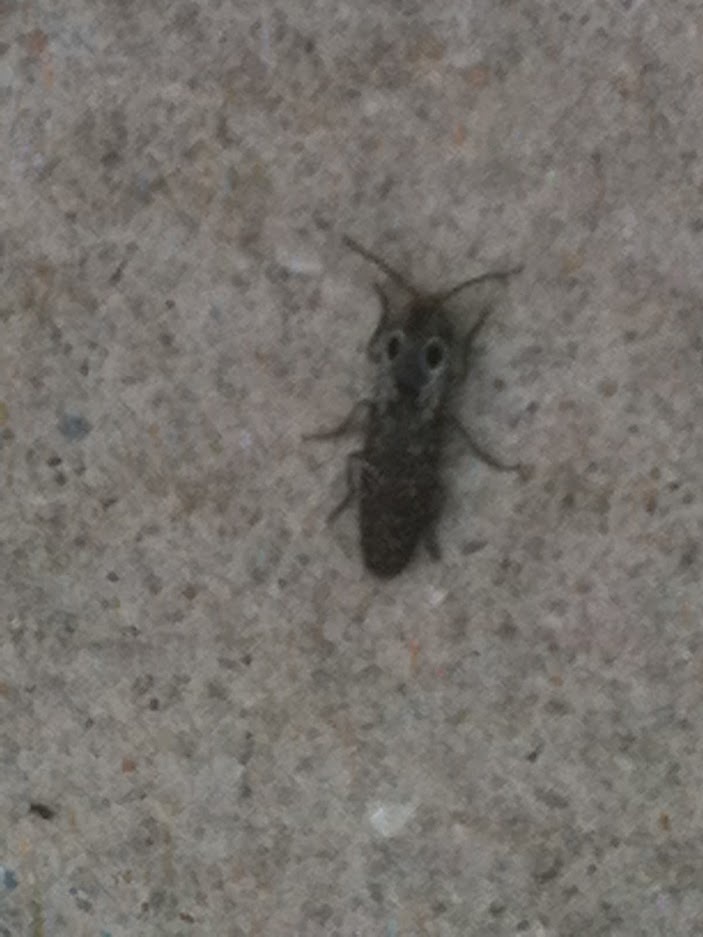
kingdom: Animalia
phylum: Arthropoda
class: Insecta
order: Coleoptera
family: Elateridae
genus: Alaus
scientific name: Alaus oculatus
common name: Eastern eyed click beetle
